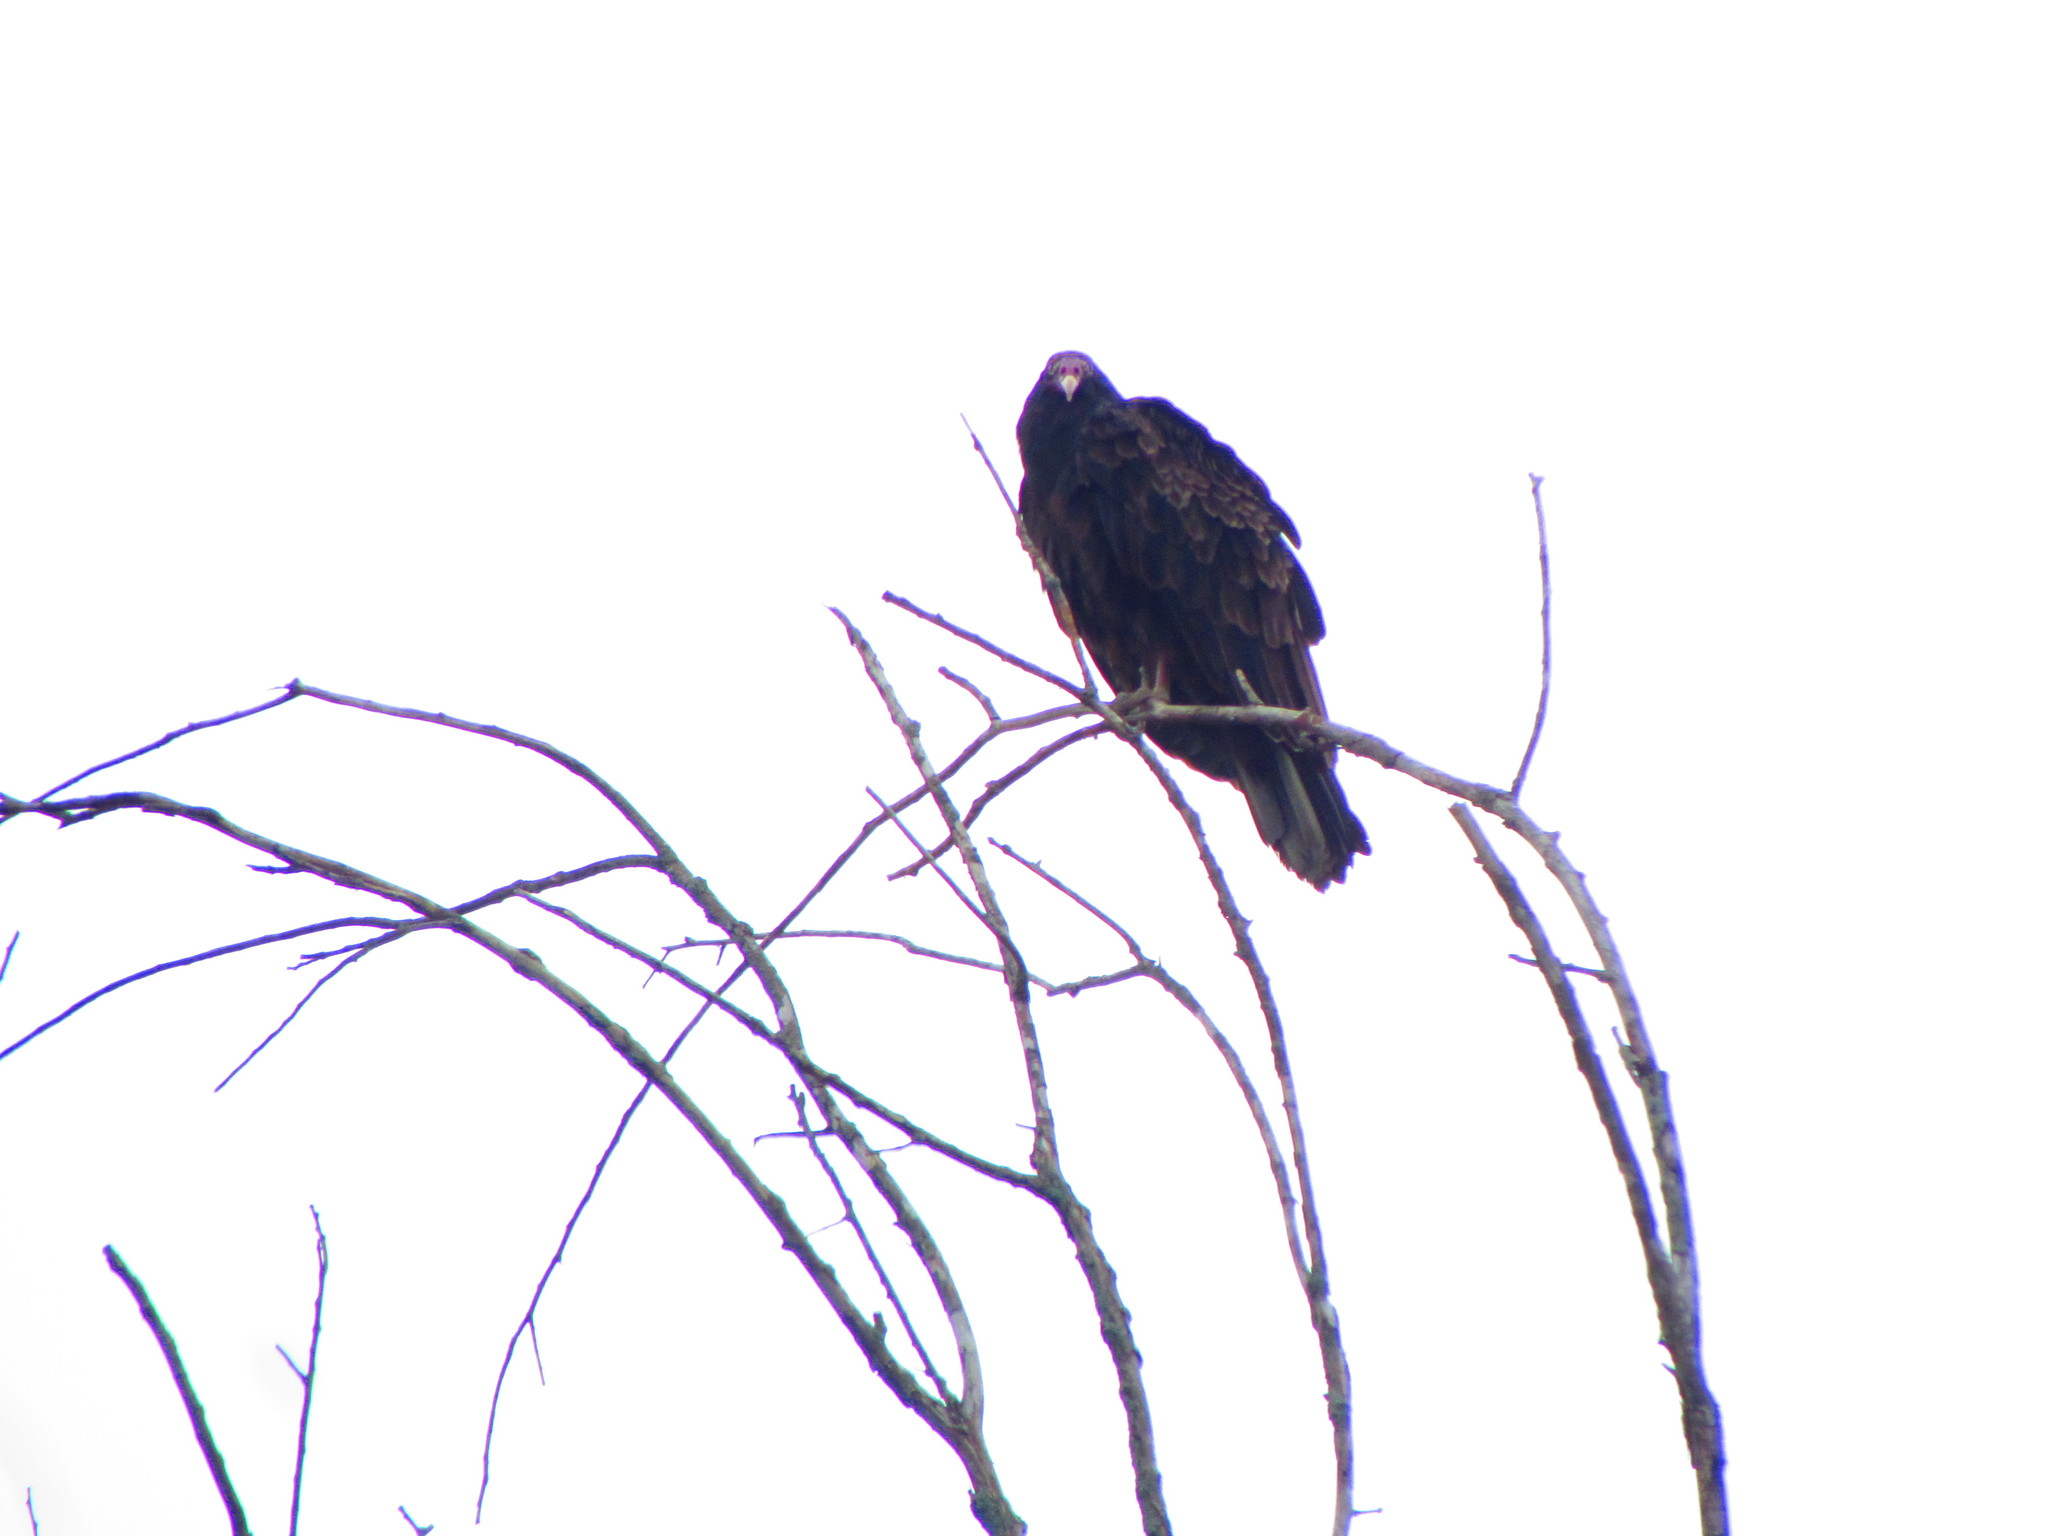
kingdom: Animalia
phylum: Chordata
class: Aves
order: Accipitriformes
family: Cathartidae
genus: Cathartes
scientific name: Cathartes aura
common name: Turkey vulture
